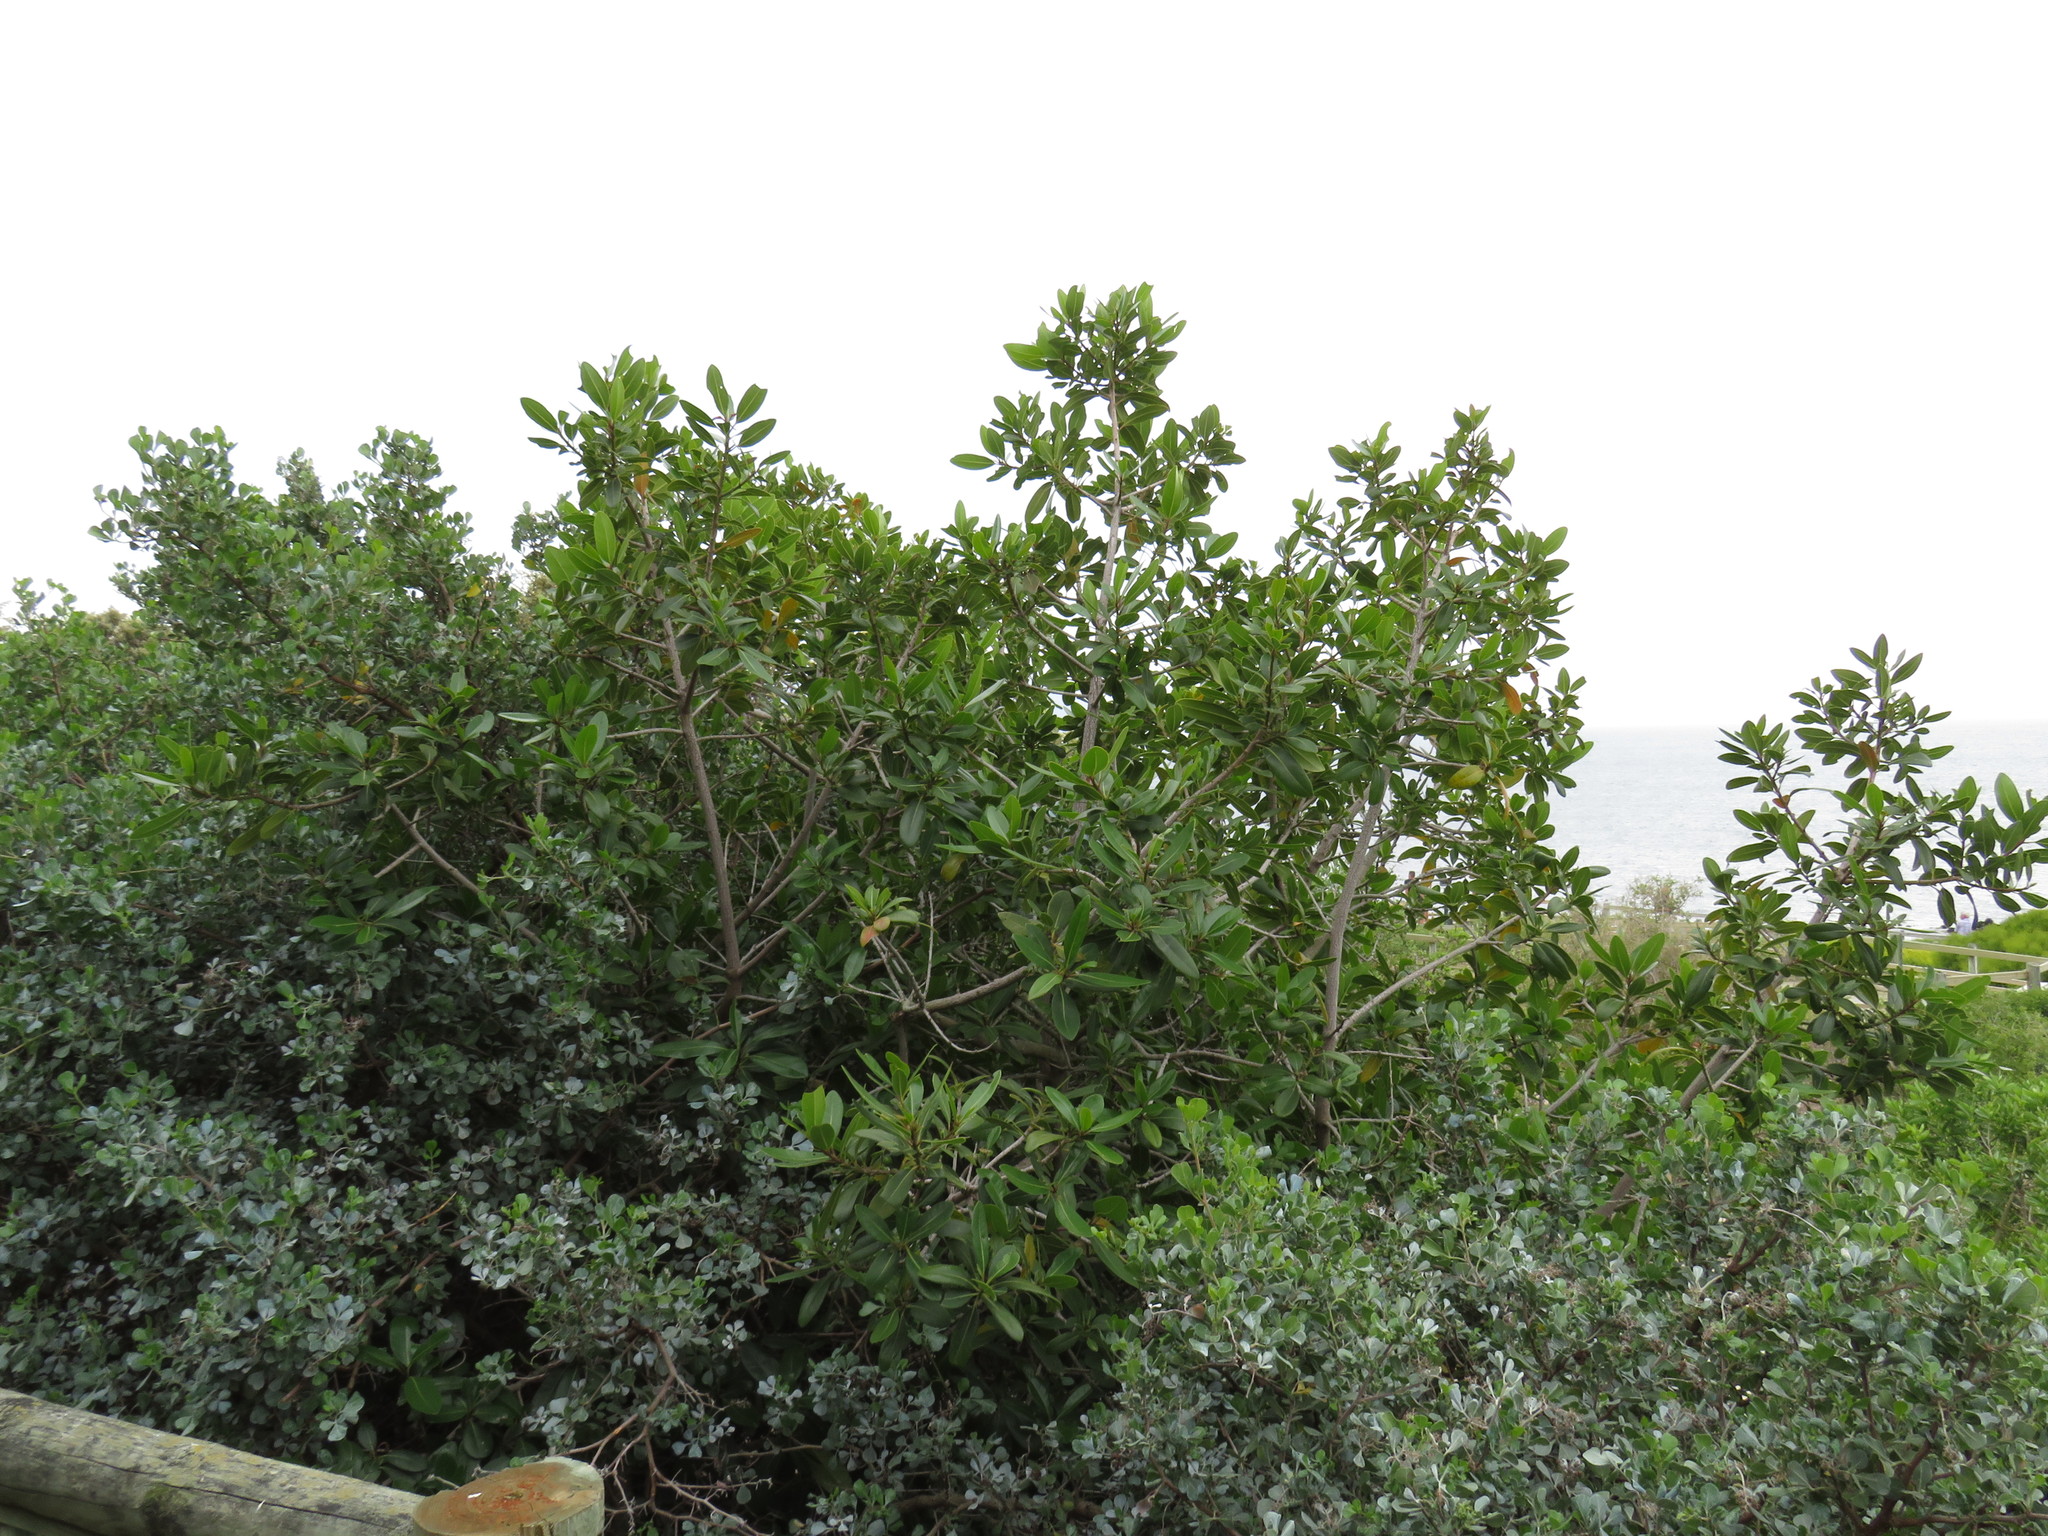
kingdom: Plantae
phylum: Tracheophyta
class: Magnoliopsida
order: Ericales
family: Sapotaceae
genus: Sideroxylon
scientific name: Sideroxylon inerme
